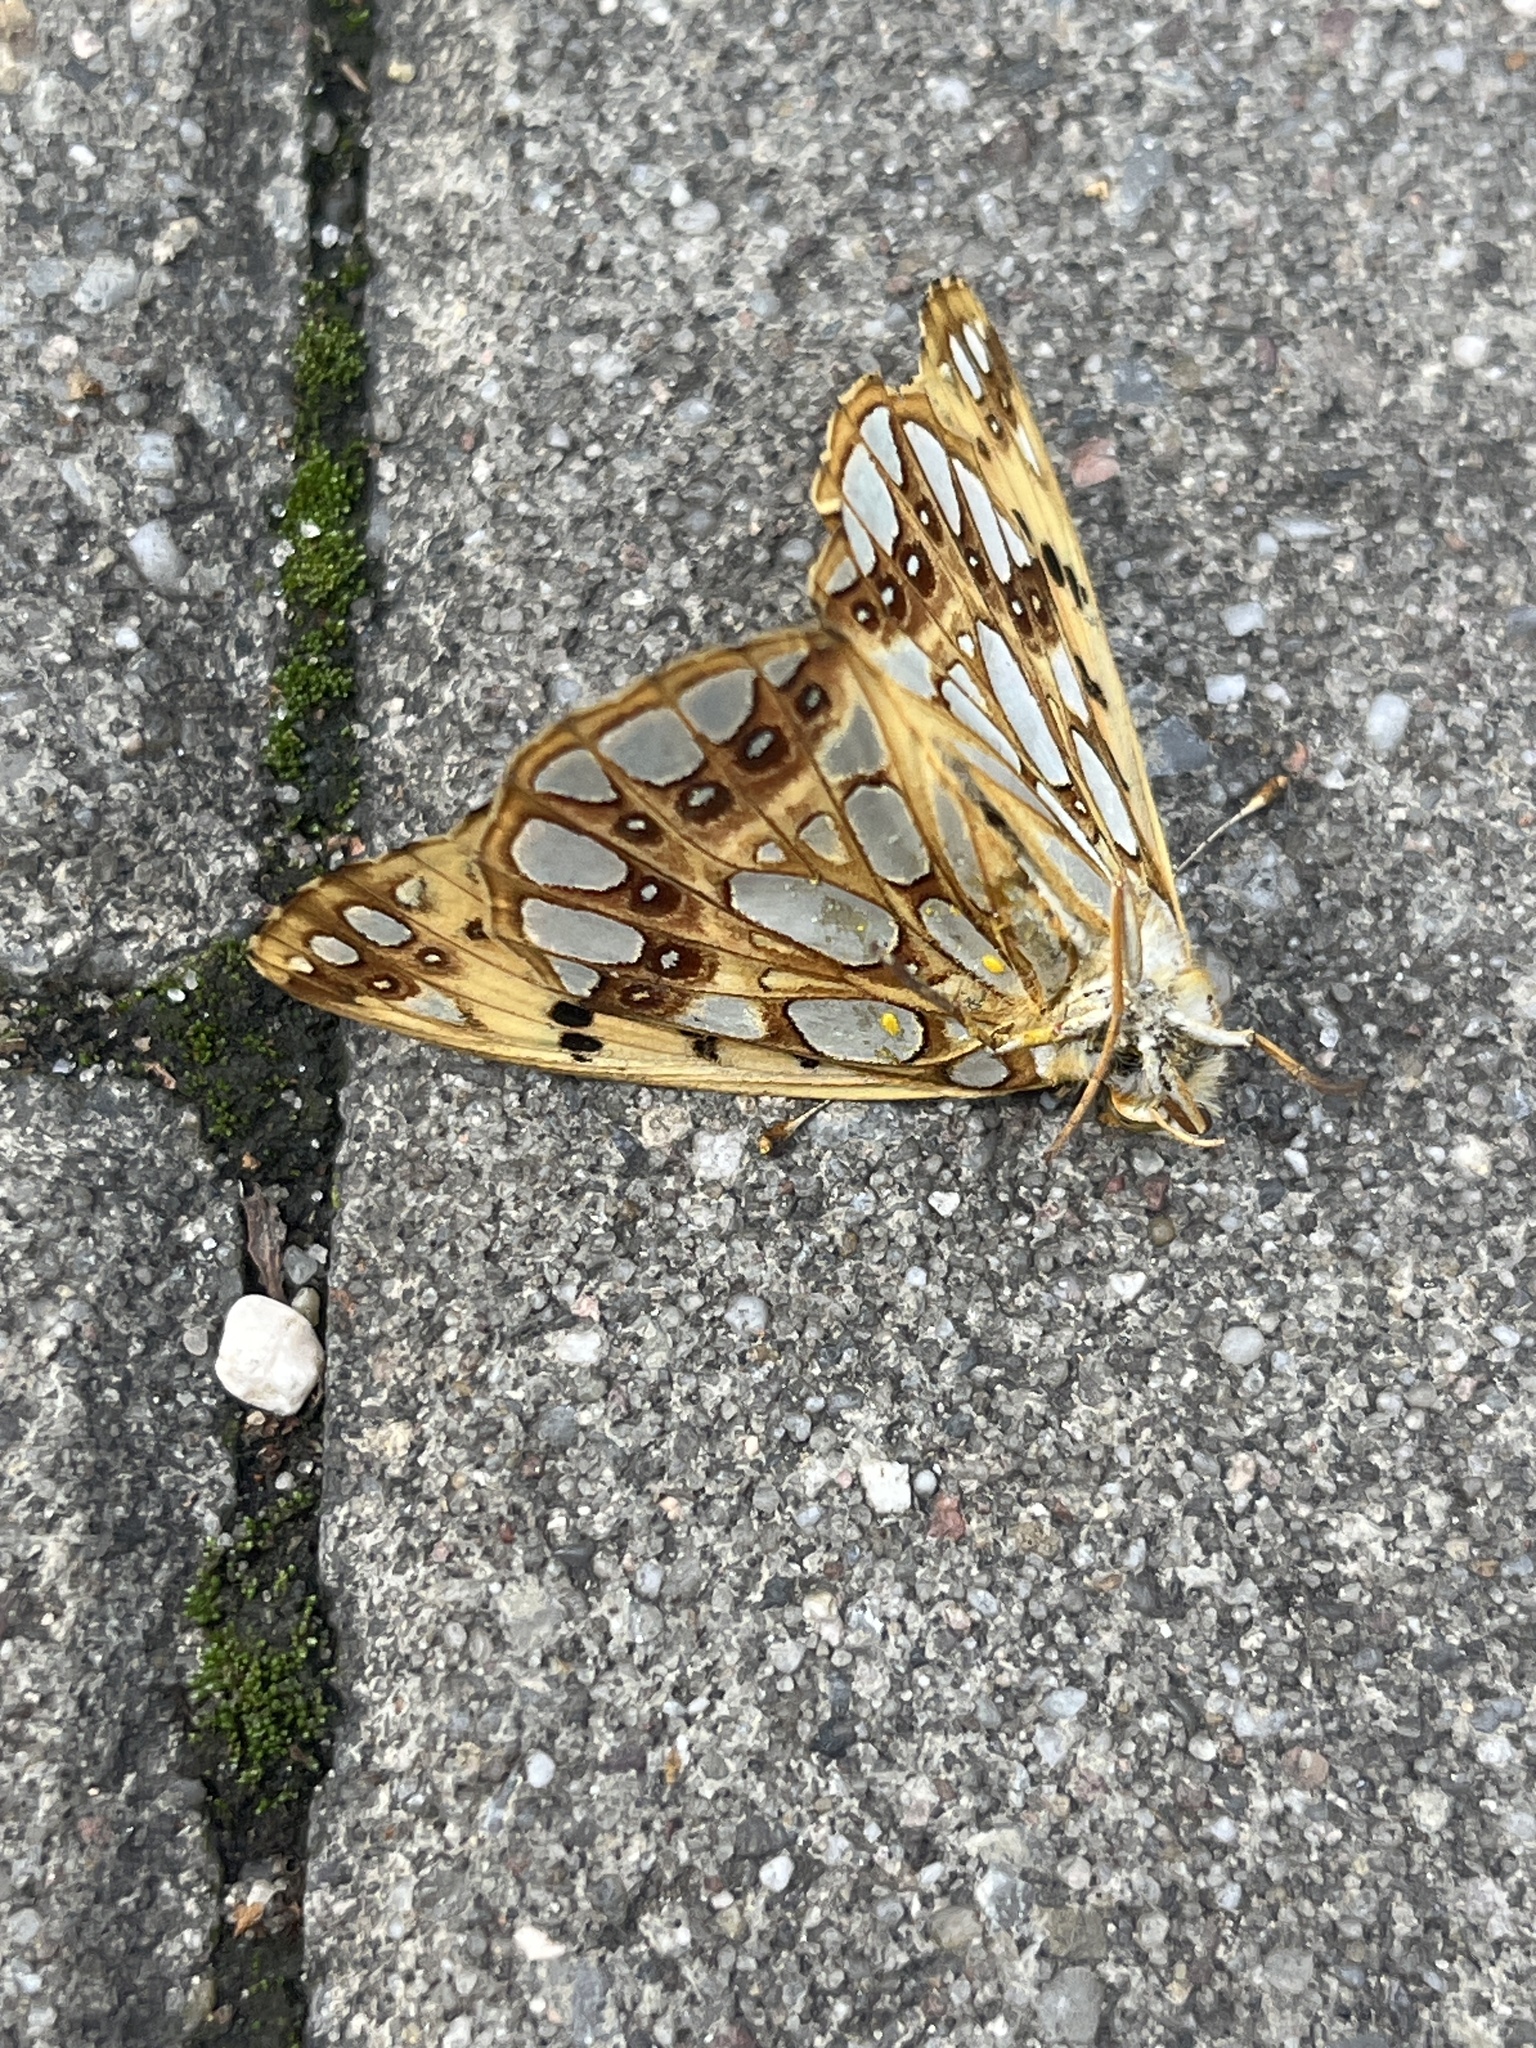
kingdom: Animalia
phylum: Arthropoda
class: Insecta
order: Lepidoptera
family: Nymphalidae
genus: Issoria
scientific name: Issoria lathonia
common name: Queen of spain fritillary
